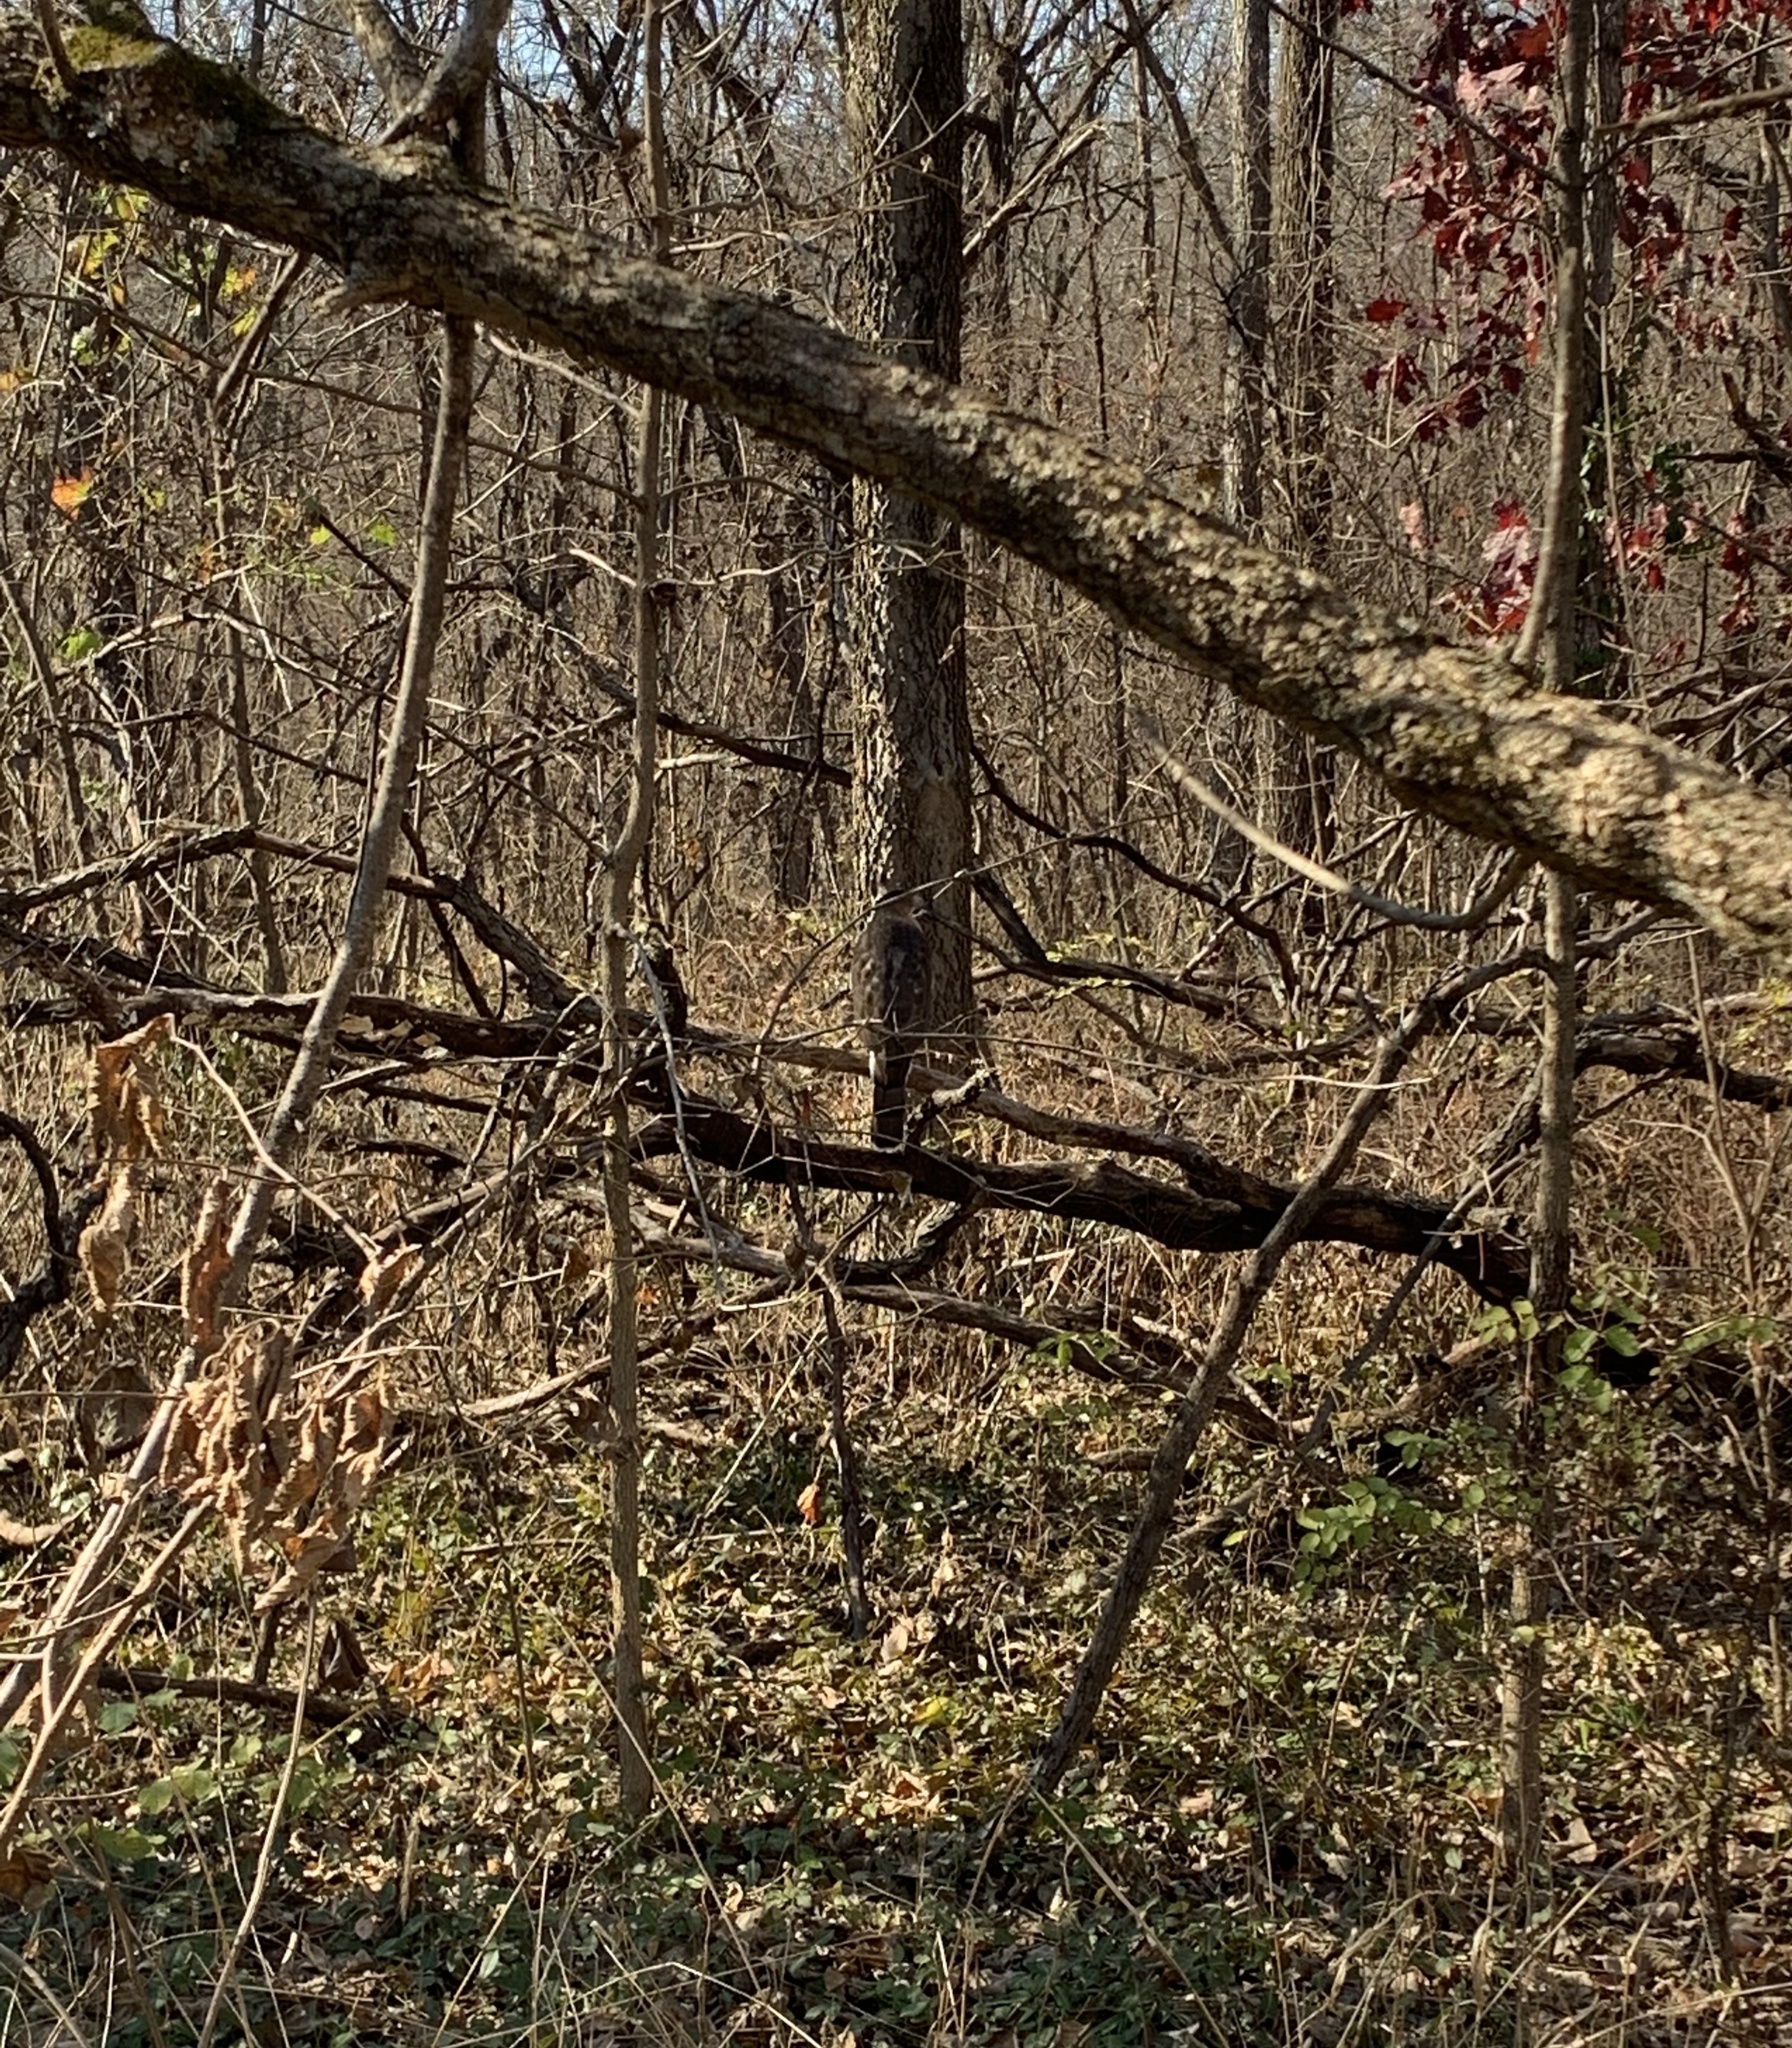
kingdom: Animalia
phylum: Chordata
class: Aves
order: Accipitriformes
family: Accipitridae
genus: Accipiter
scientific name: Accipiter cooperii
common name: Cooper's hawk
